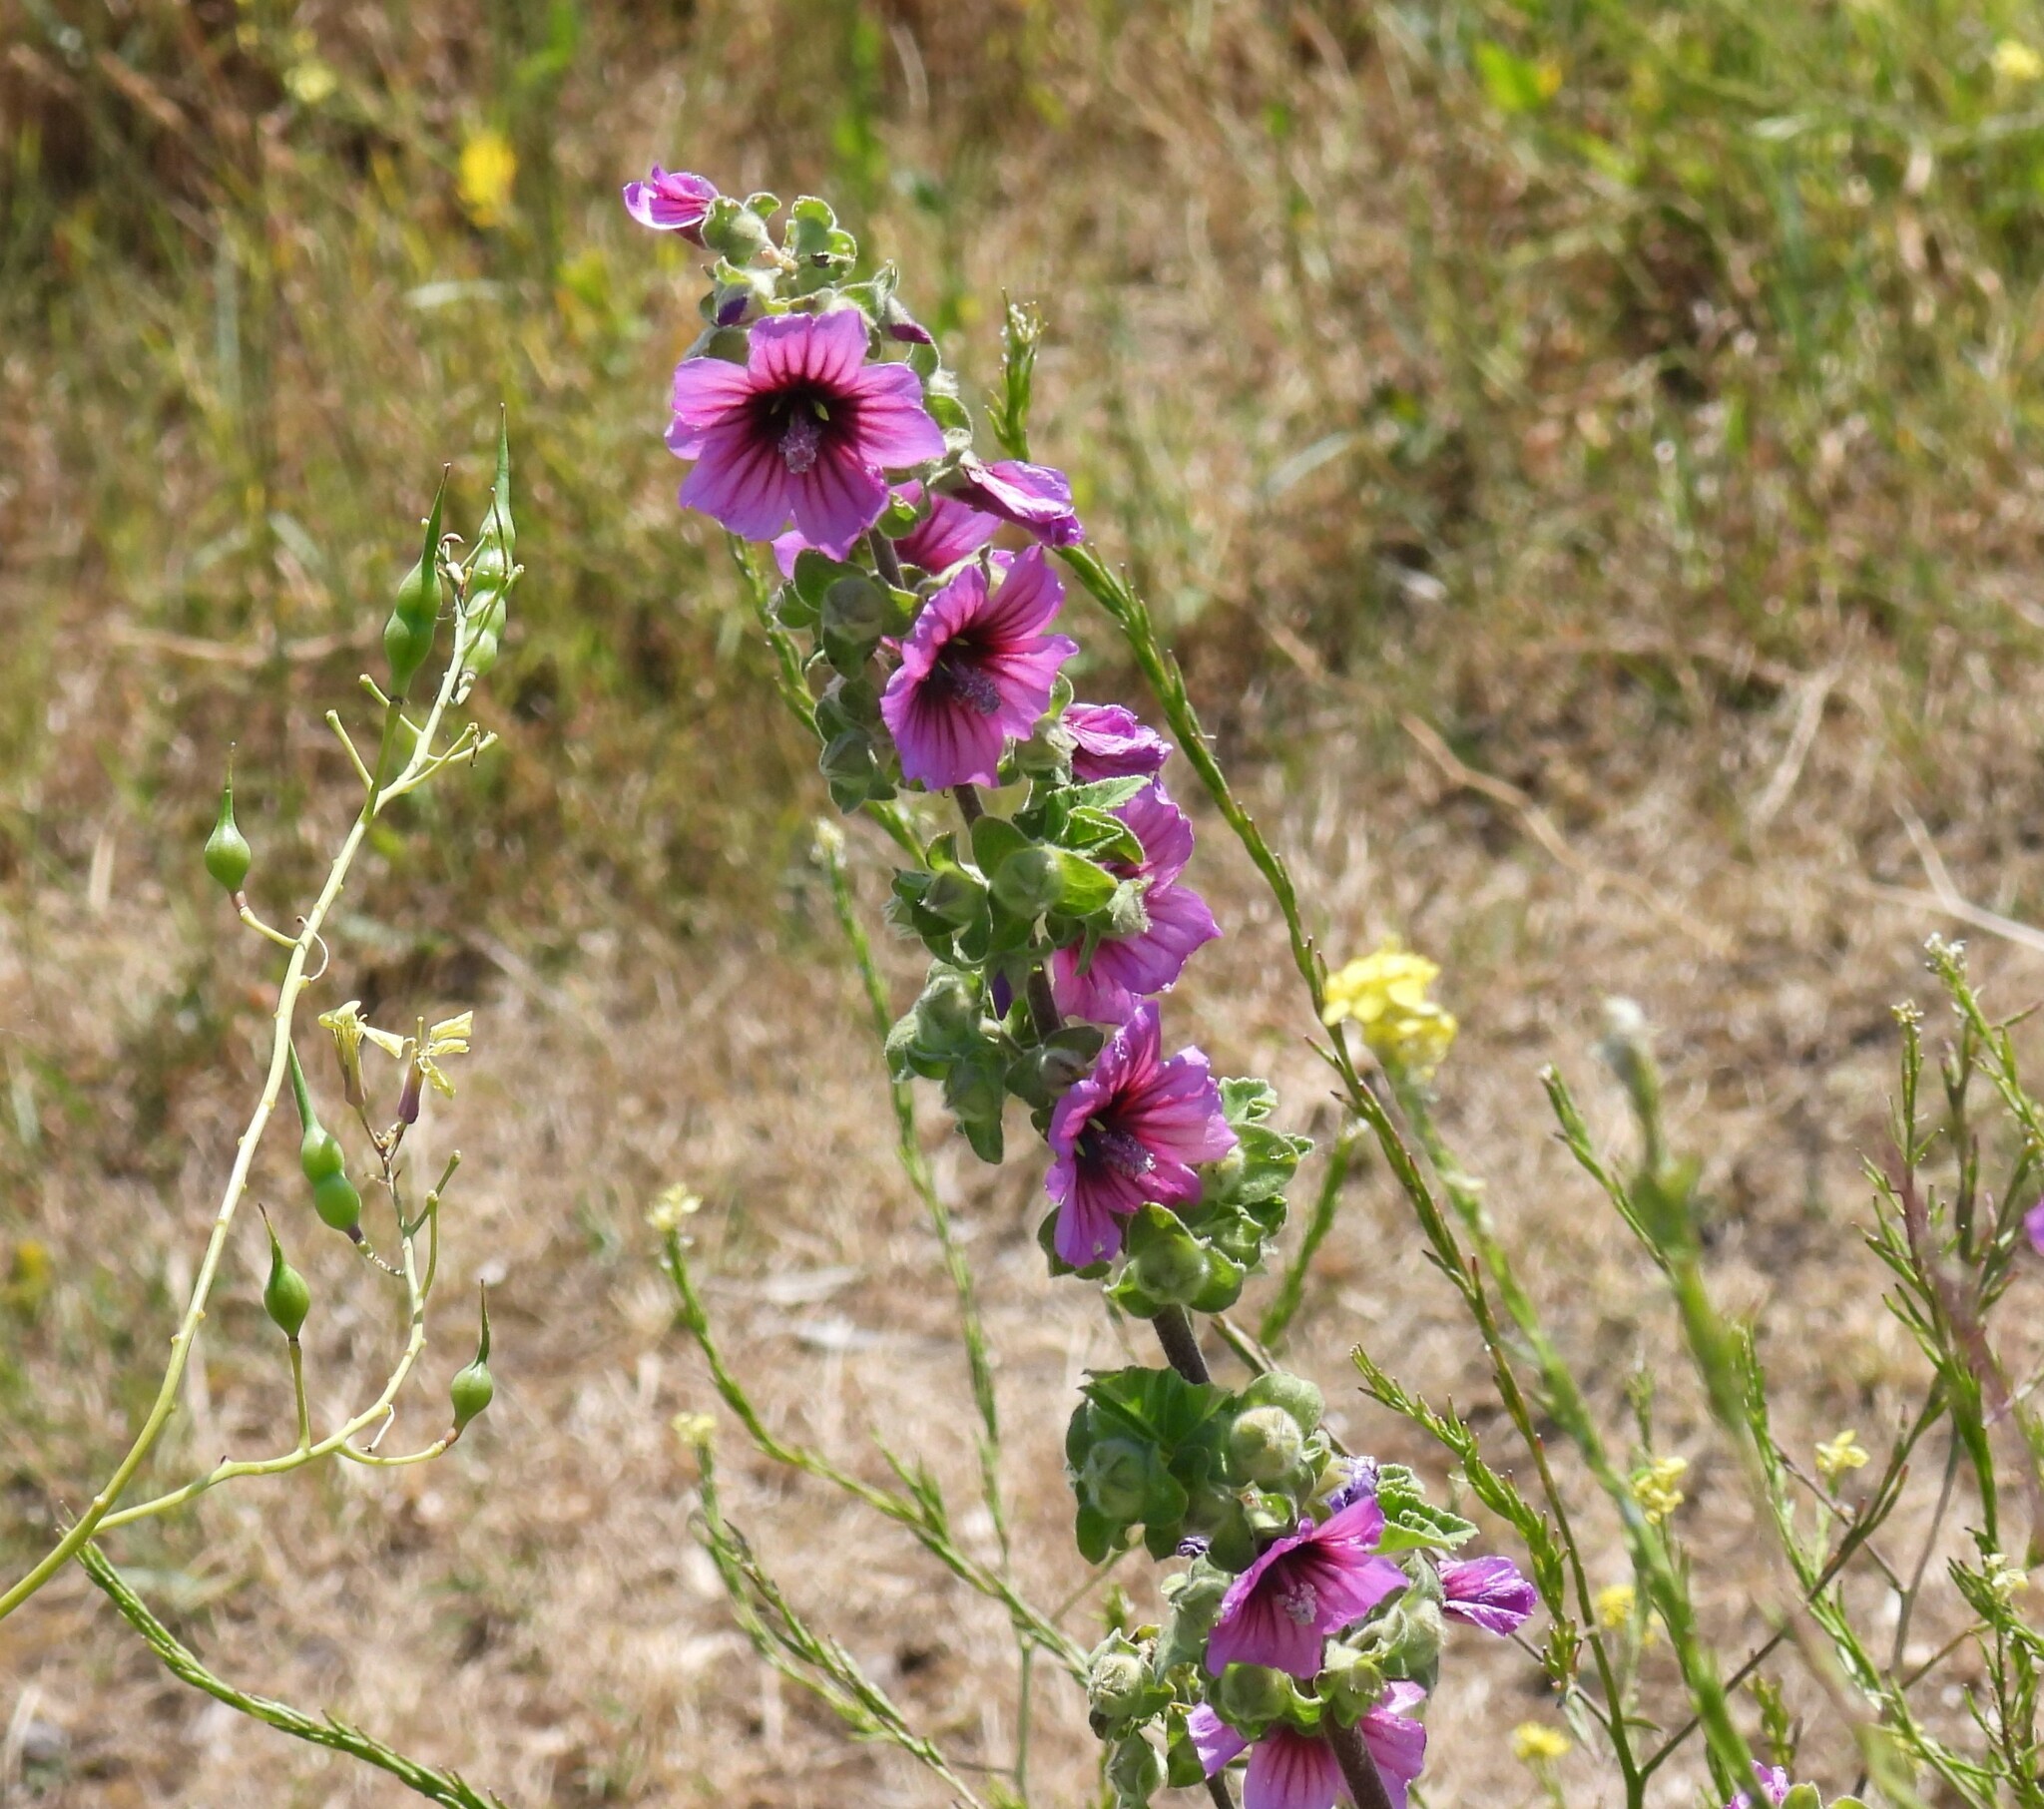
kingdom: Plantae
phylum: Tracheophyta
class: Magnoliopsida
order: Malvales
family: Malvaceae
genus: Malva
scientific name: Malva arborea
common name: Tree mallow
